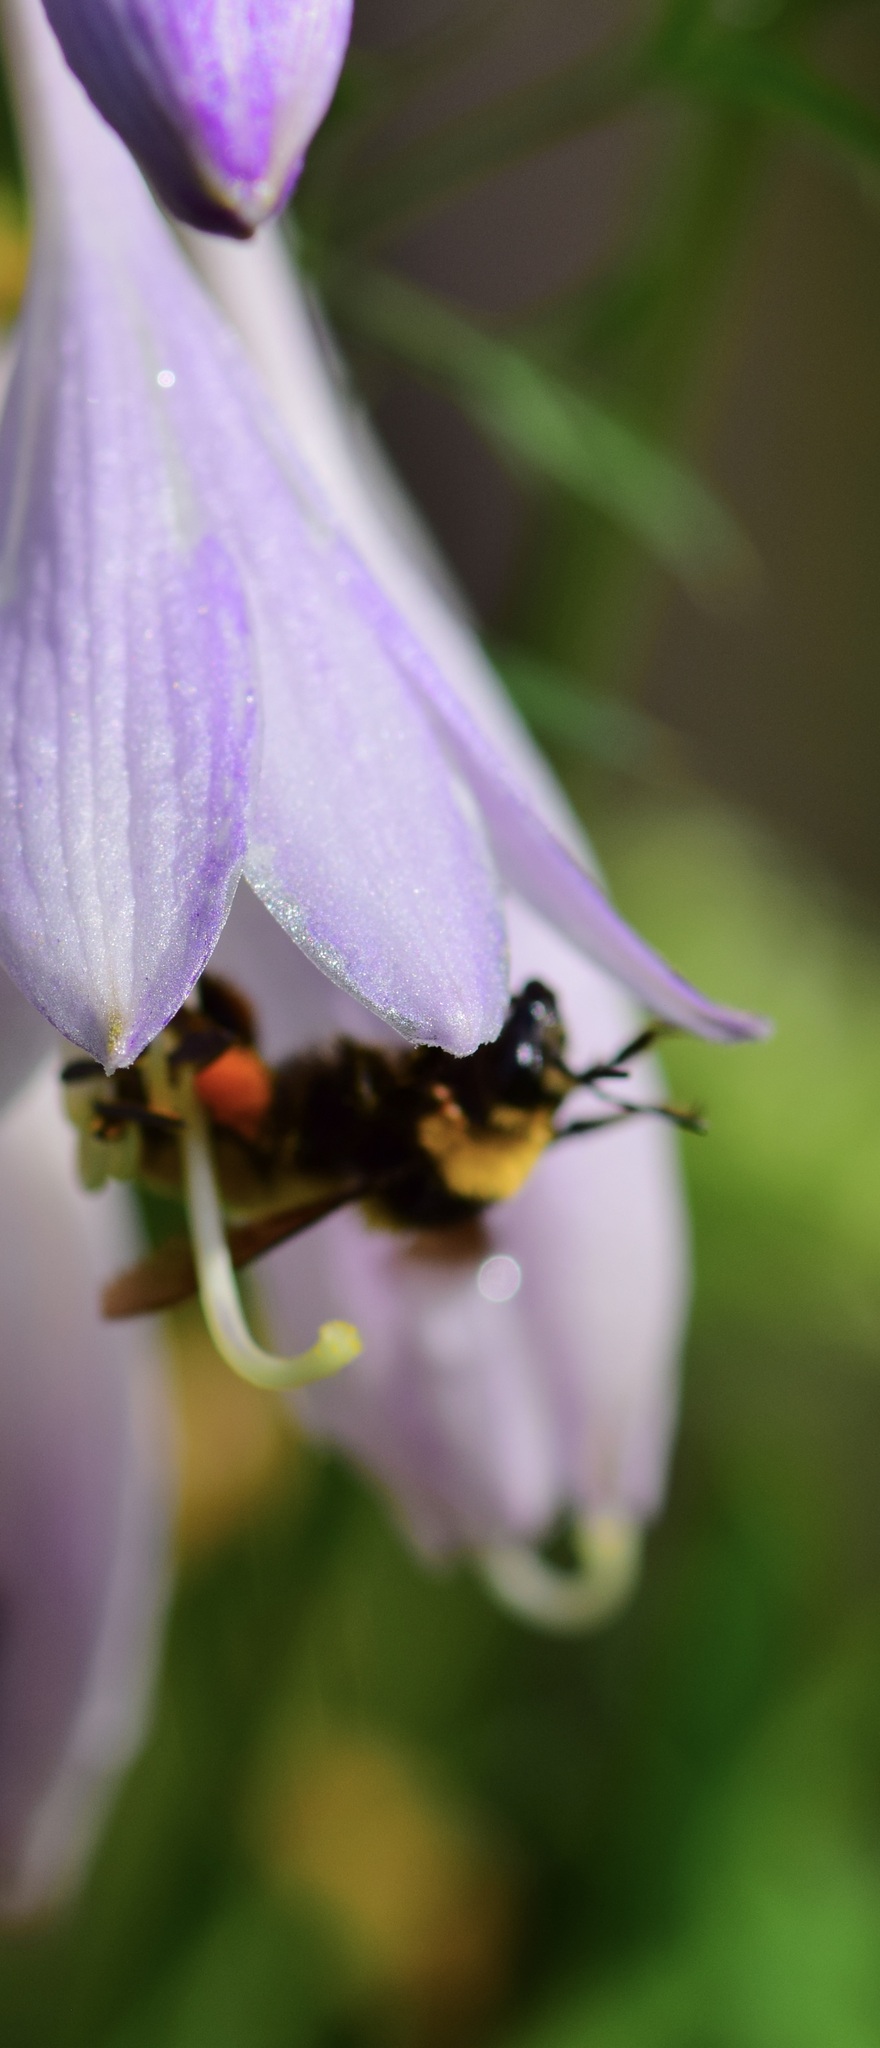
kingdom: Animalia
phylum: Arthropoda
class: Insecta
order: Hymenoptera
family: Apidae
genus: Bombus
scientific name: Bombus borealis
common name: Northern amber bumble bee
